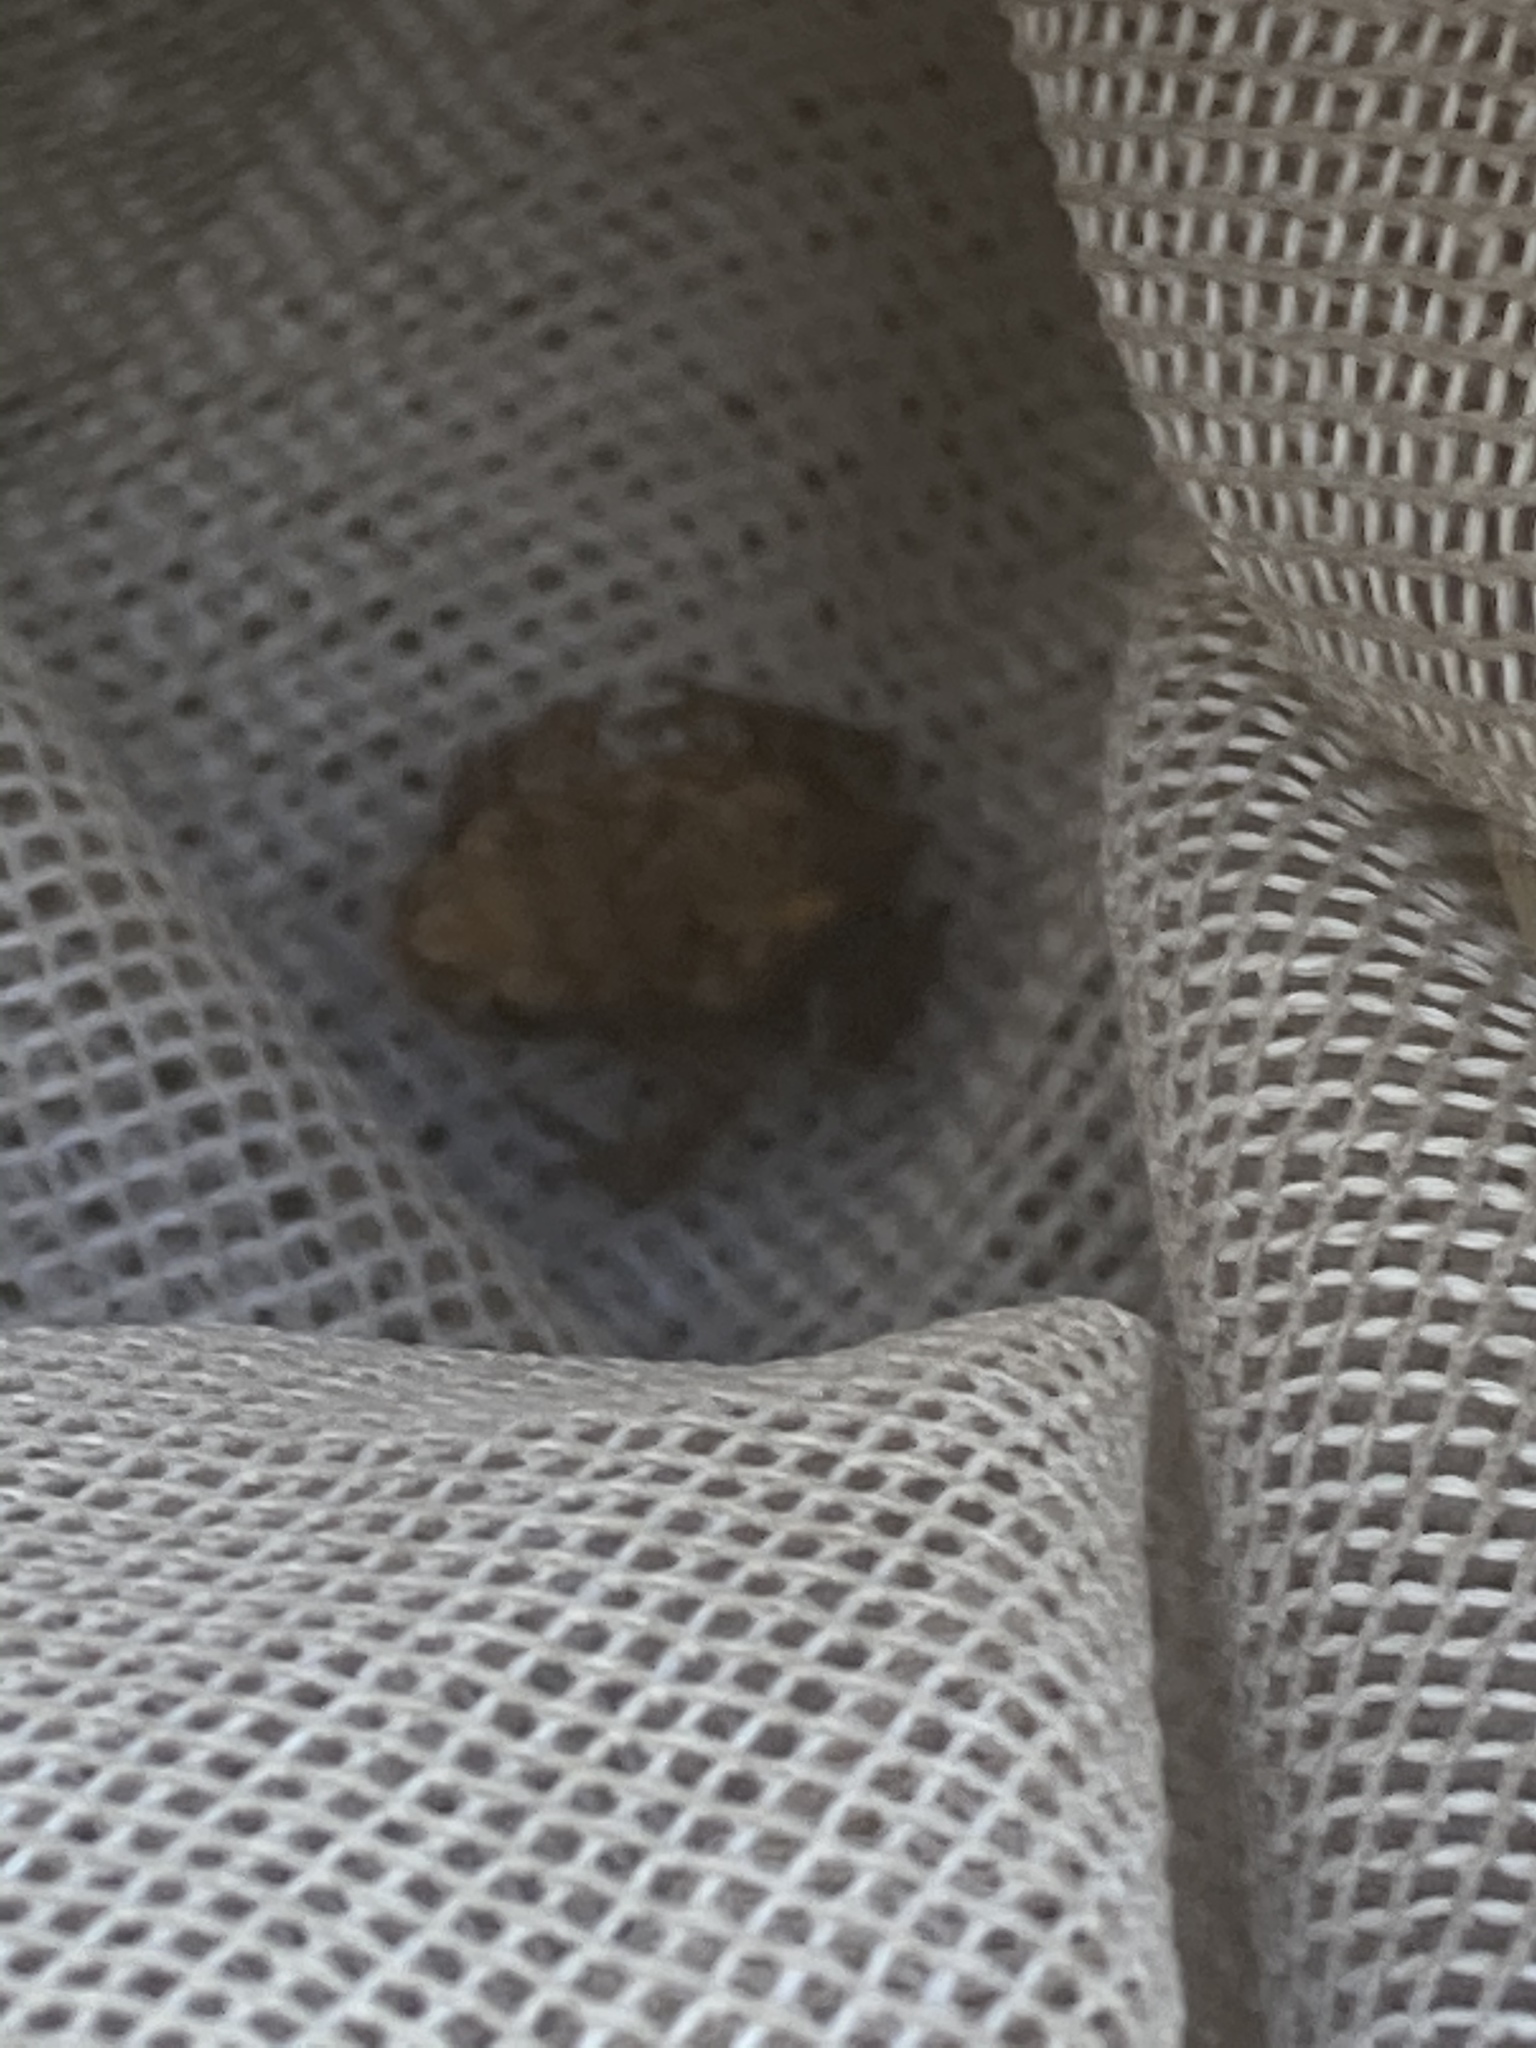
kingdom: Animalia
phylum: Chordata
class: Amphibia
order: Anura
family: Bufonidae
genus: Bufo
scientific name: Bufo bufo
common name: Common toad
